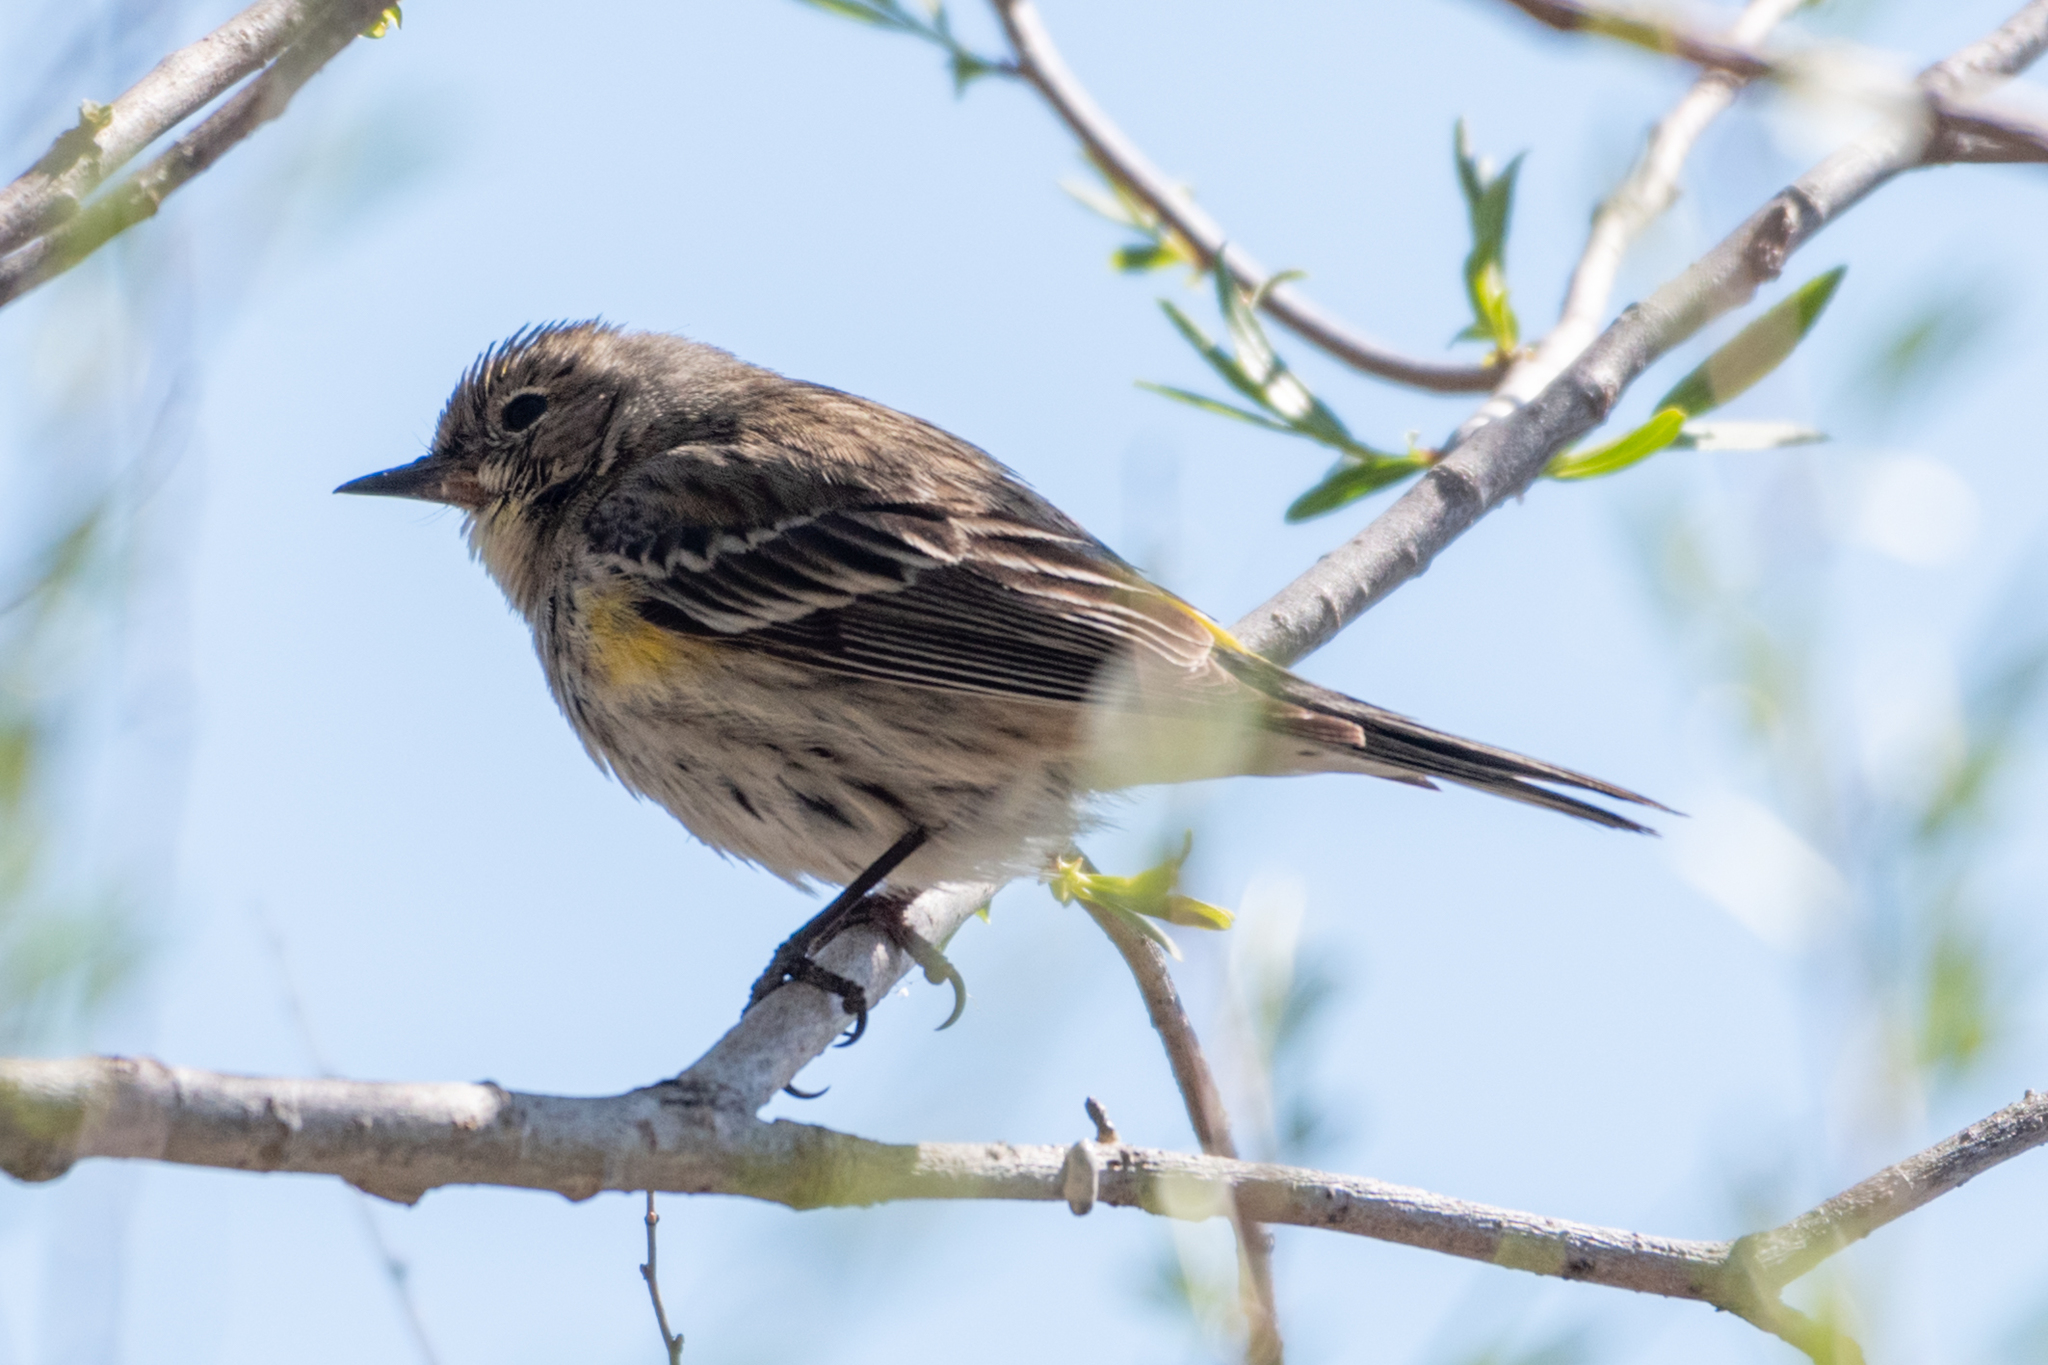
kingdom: Animalia
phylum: Chordata
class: Aves
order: Passeriformes
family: Parulidae
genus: Setophaga
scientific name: Setophaga coronata
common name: Myrtle warbler
